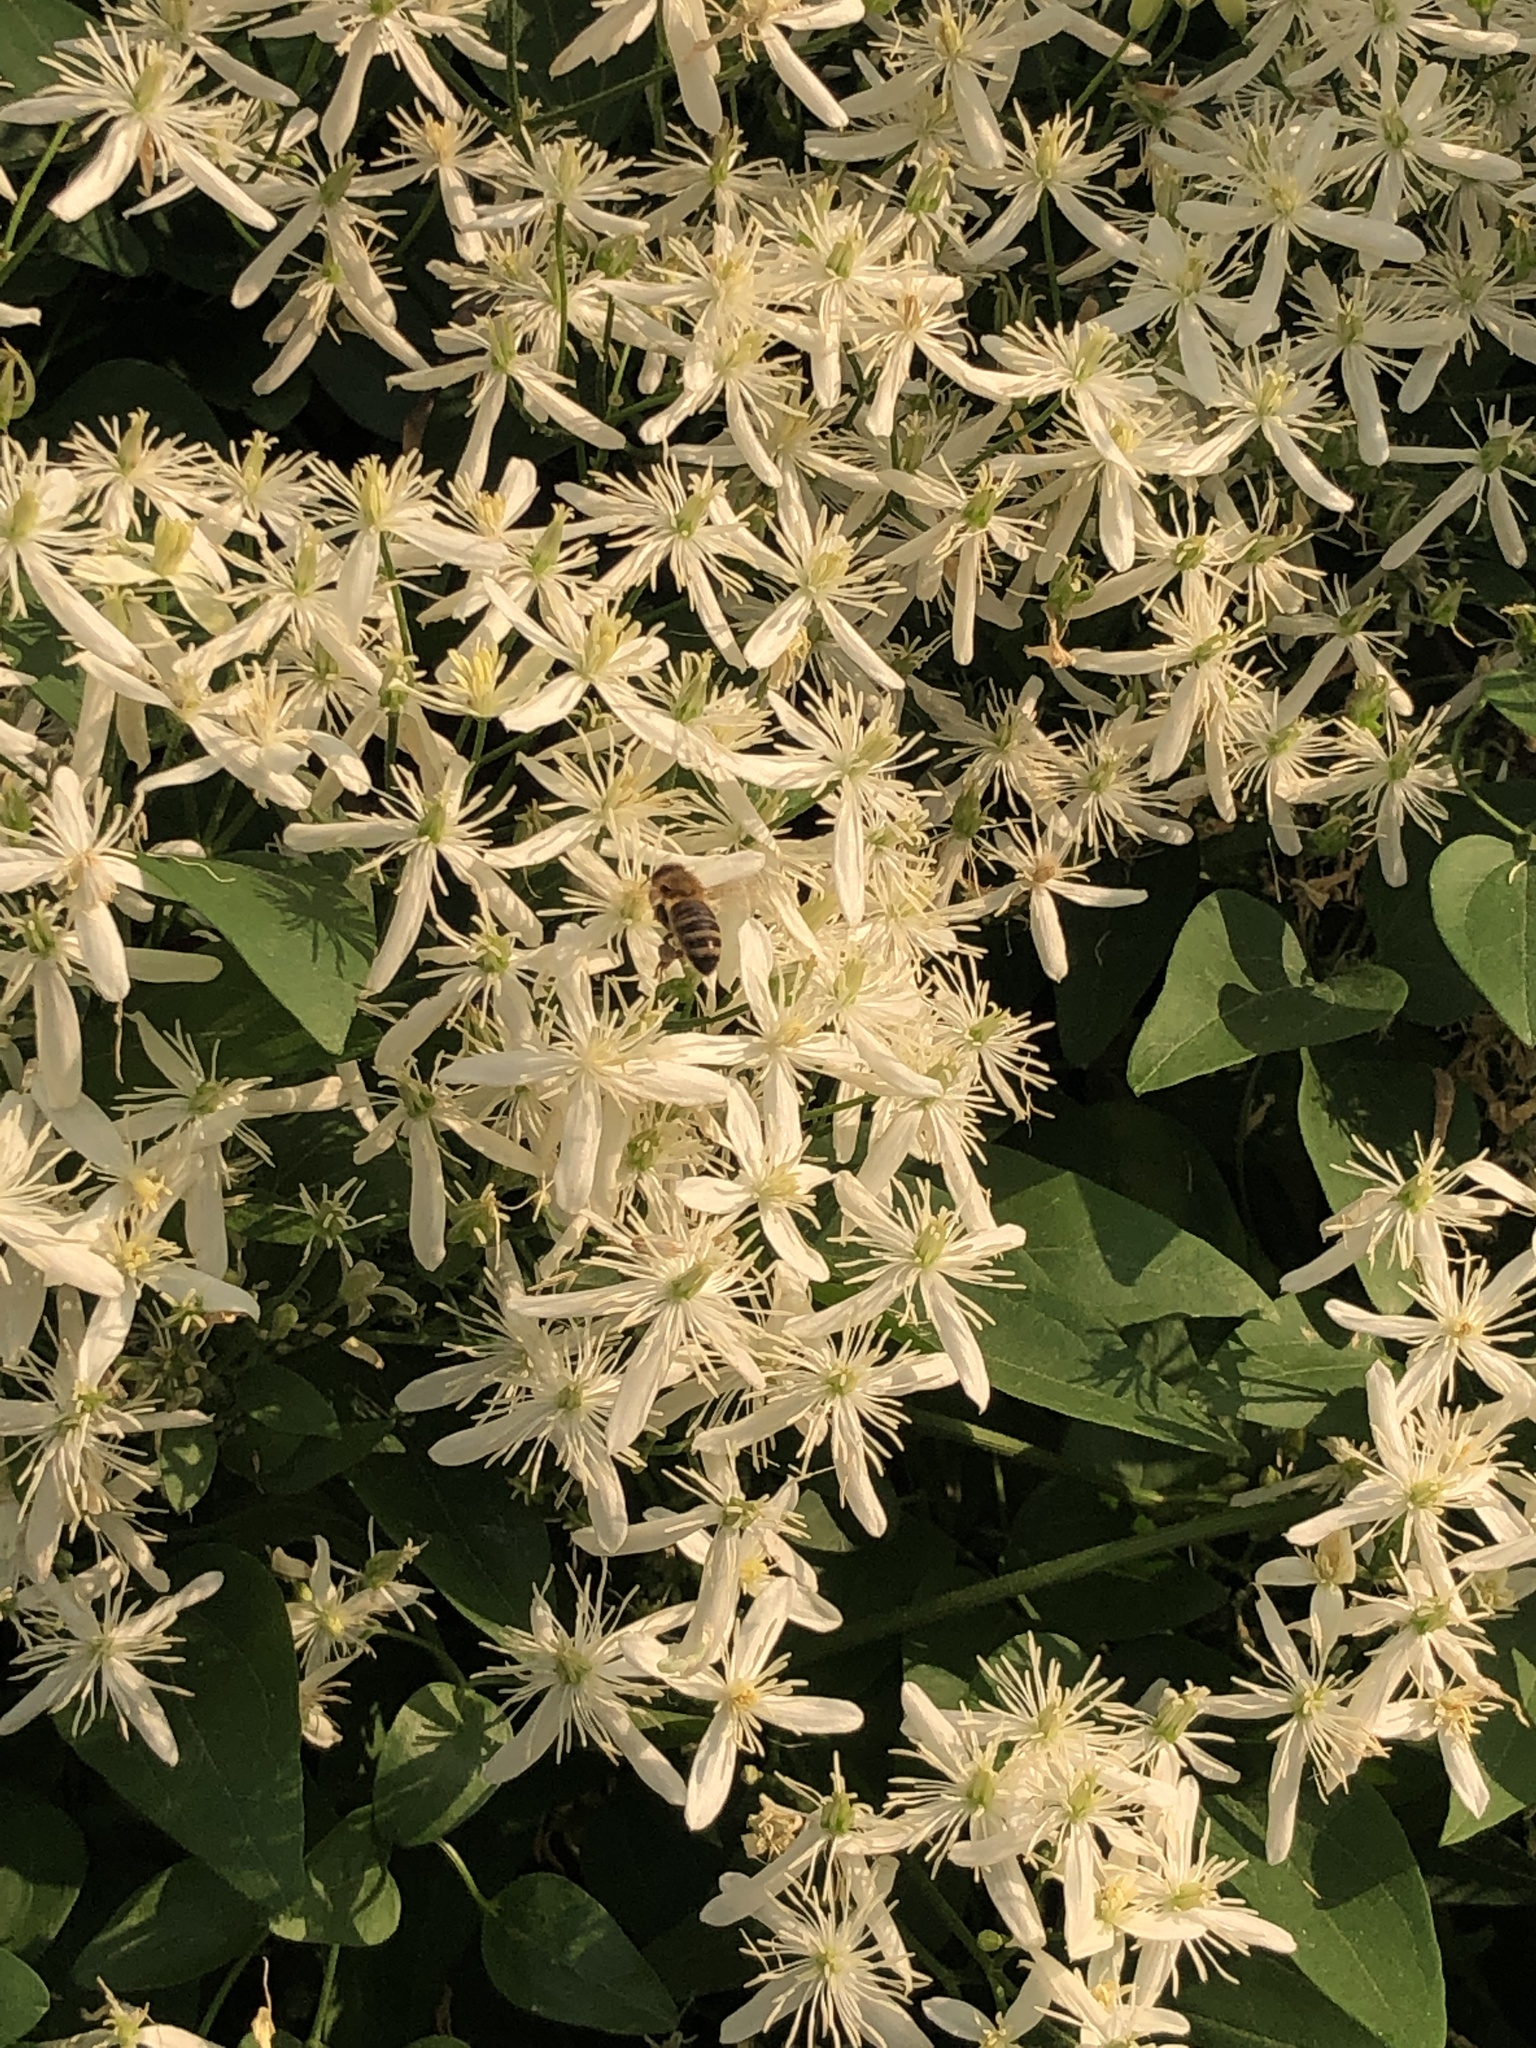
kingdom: Plantae
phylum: Tracheophyta
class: Magnoliopsida
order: Ranunculales
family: Ranunculaceae
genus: Clematis
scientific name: Clematis terniflora
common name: Sweet autumn clematis
